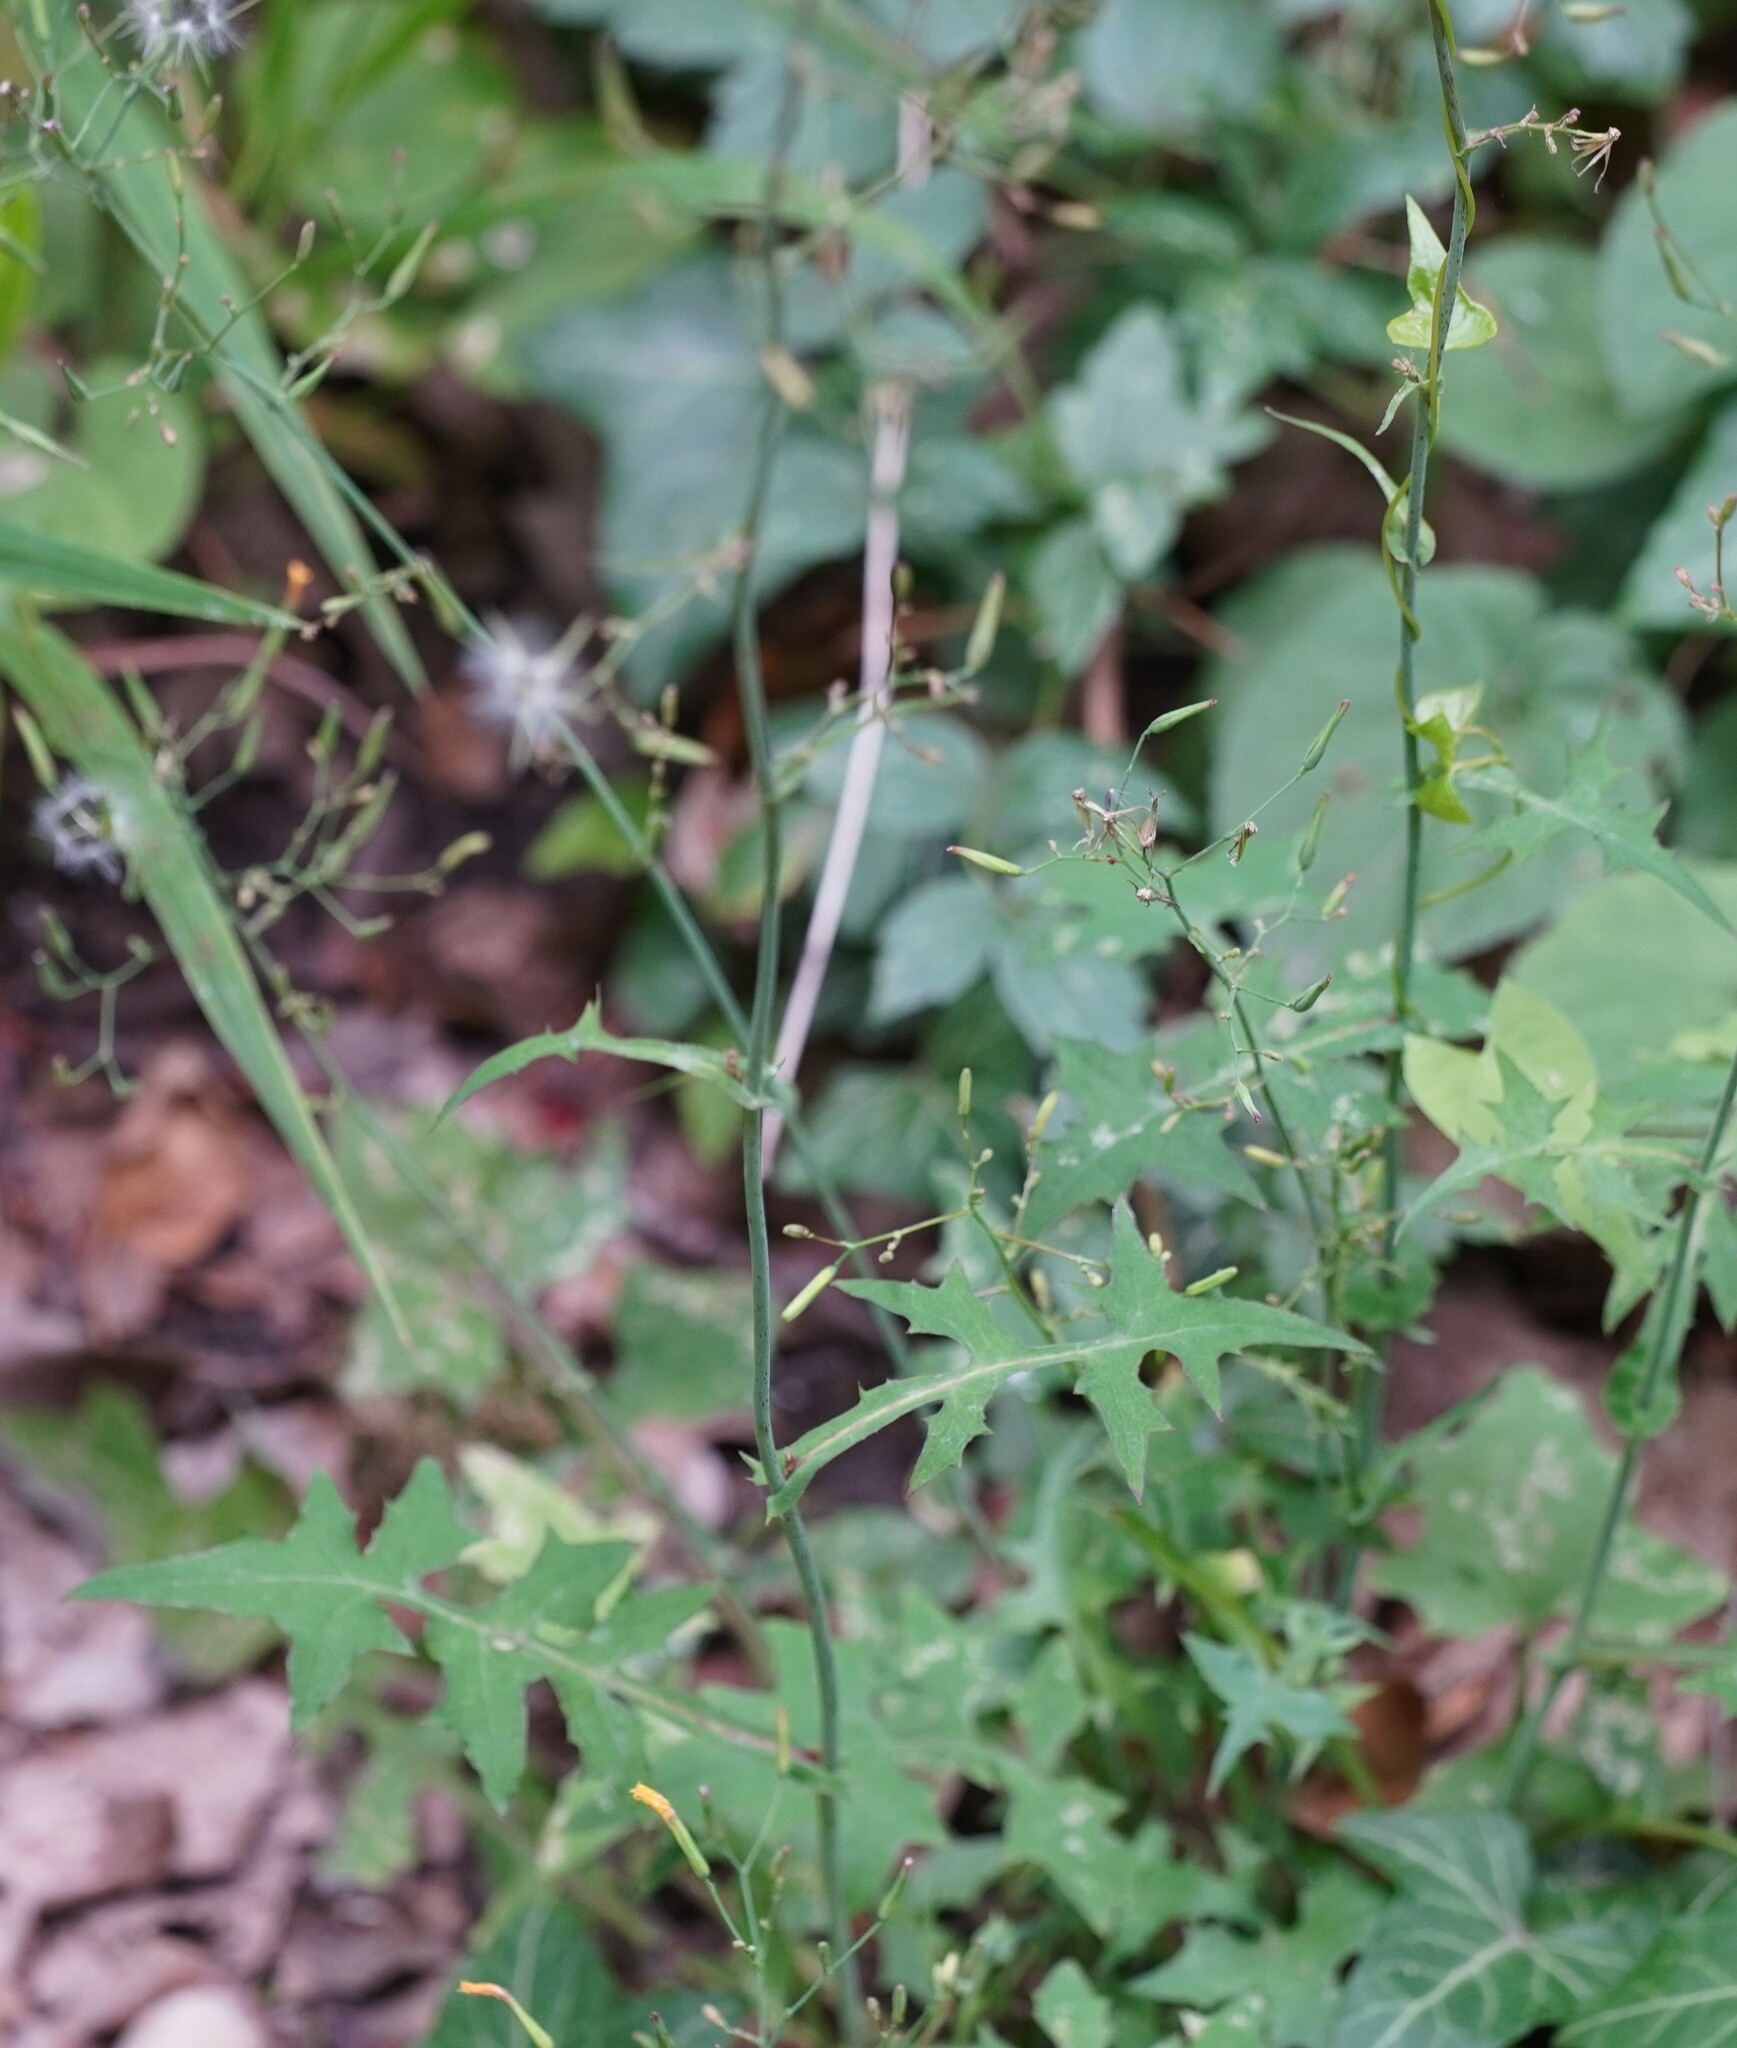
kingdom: Plantae
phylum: Tracheophyta
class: Magnoliopsida
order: Asterales
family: Asteraceae
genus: Mycelis
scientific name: Mycelis muralis
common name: Wall lettuce
